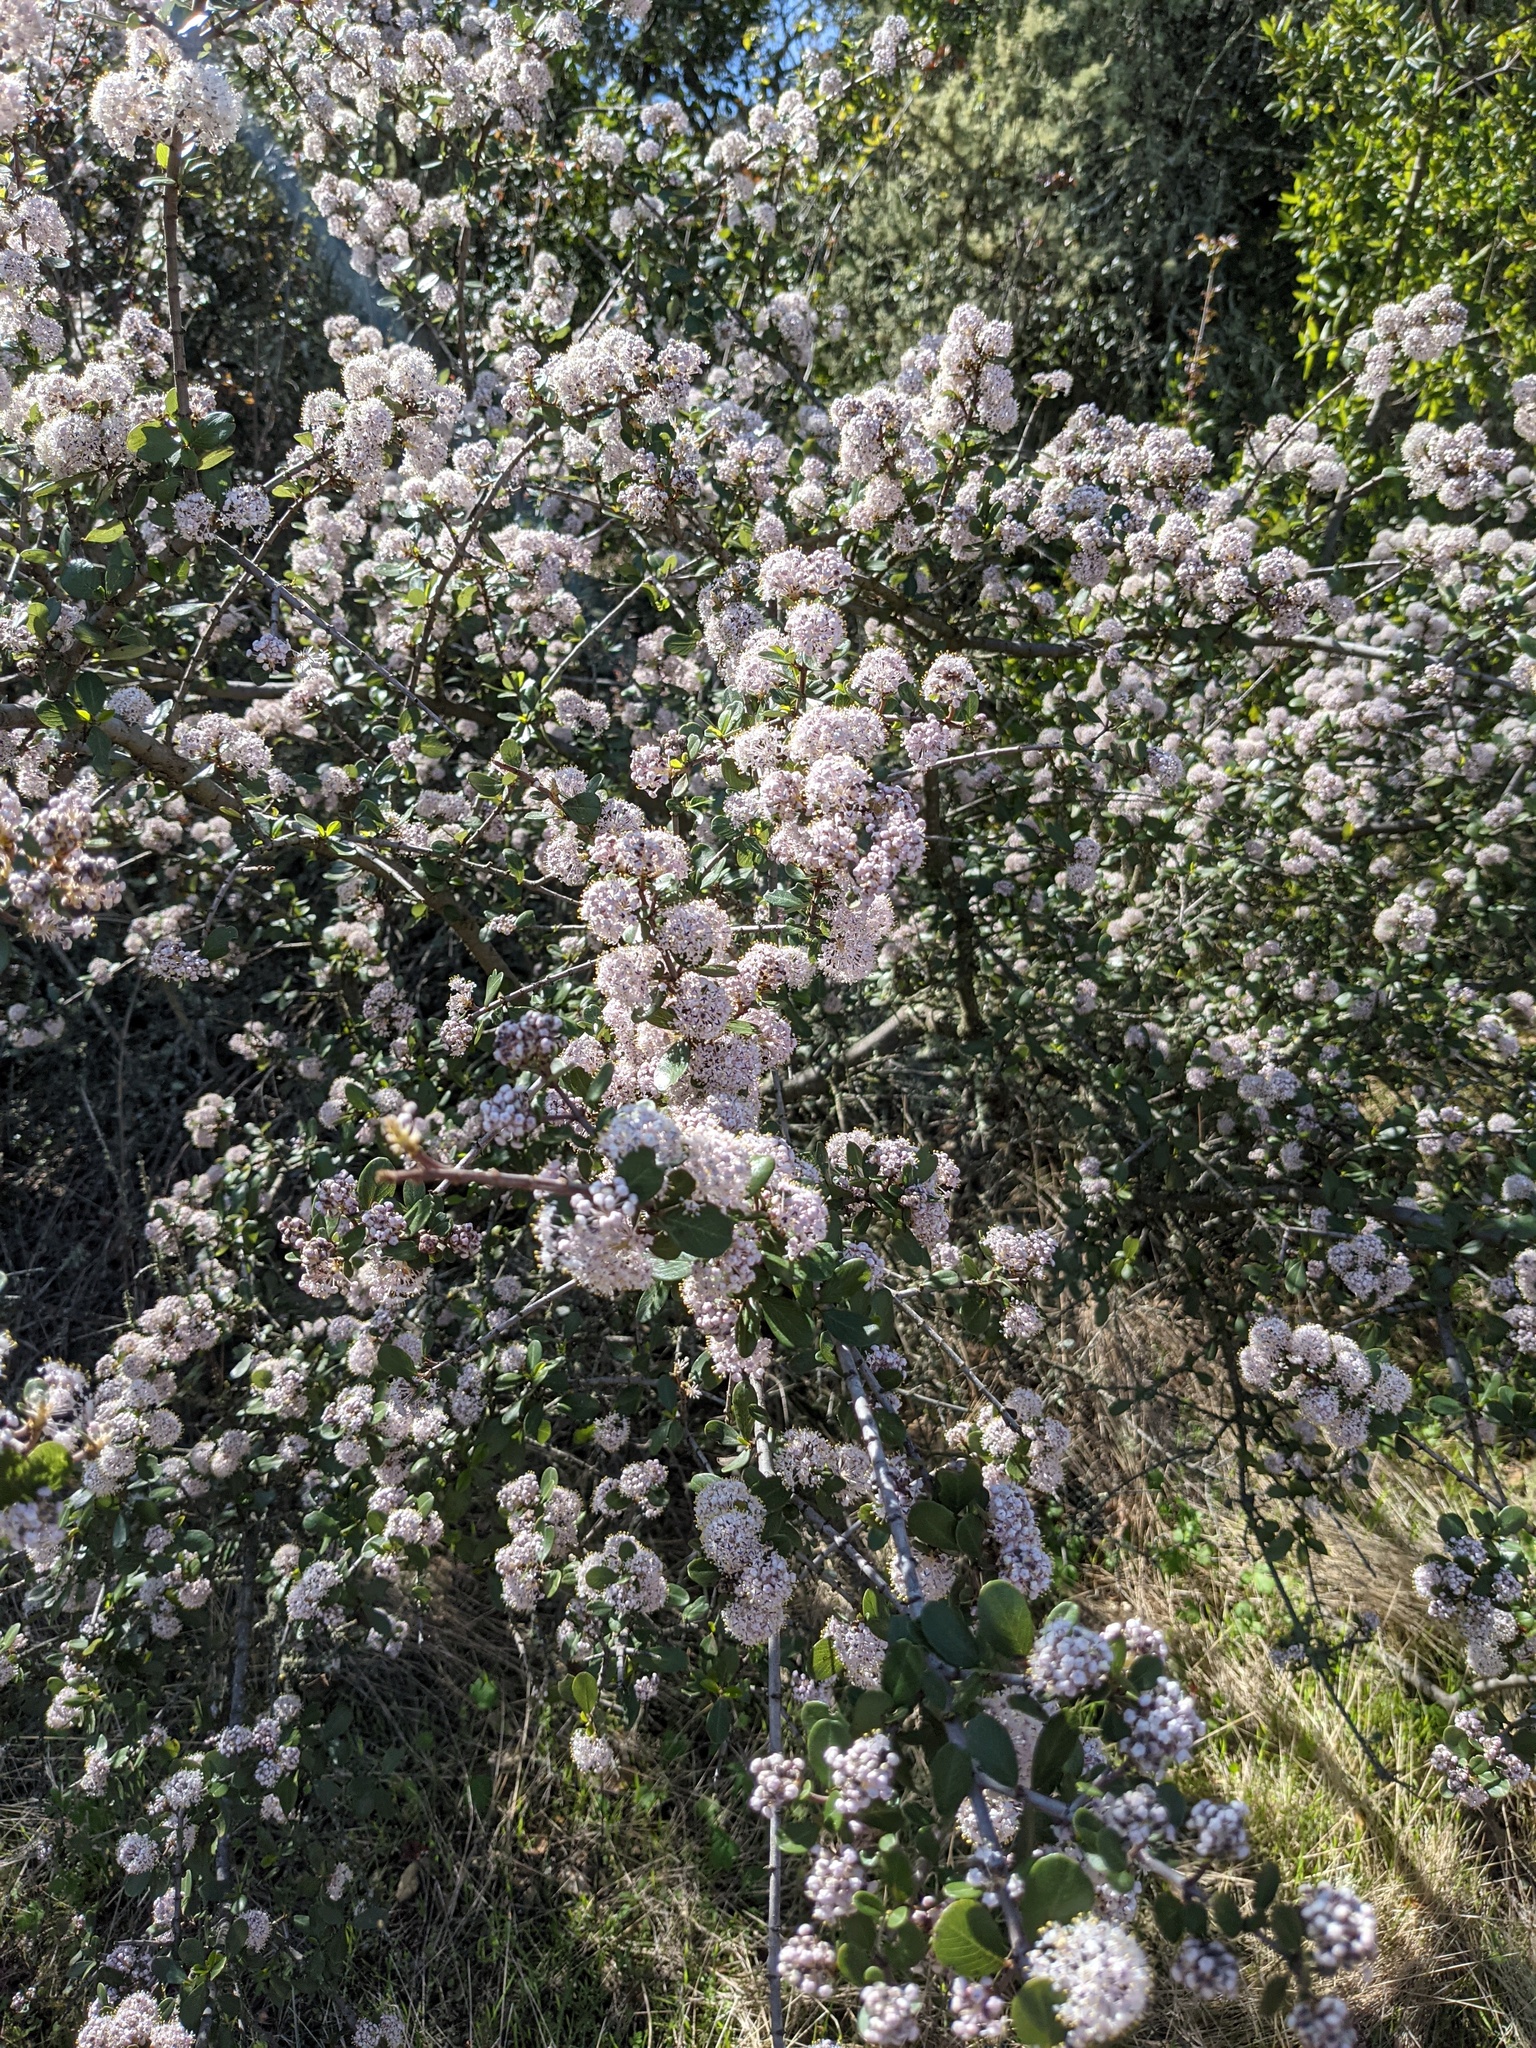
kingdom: Plantae
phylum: Tracheophyta
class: Magnoliopsida
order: Rosales
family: Rhamnaceae
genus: Ceanothus
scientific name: Ceanothus cuneatus
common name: Cuneate ceanothus
